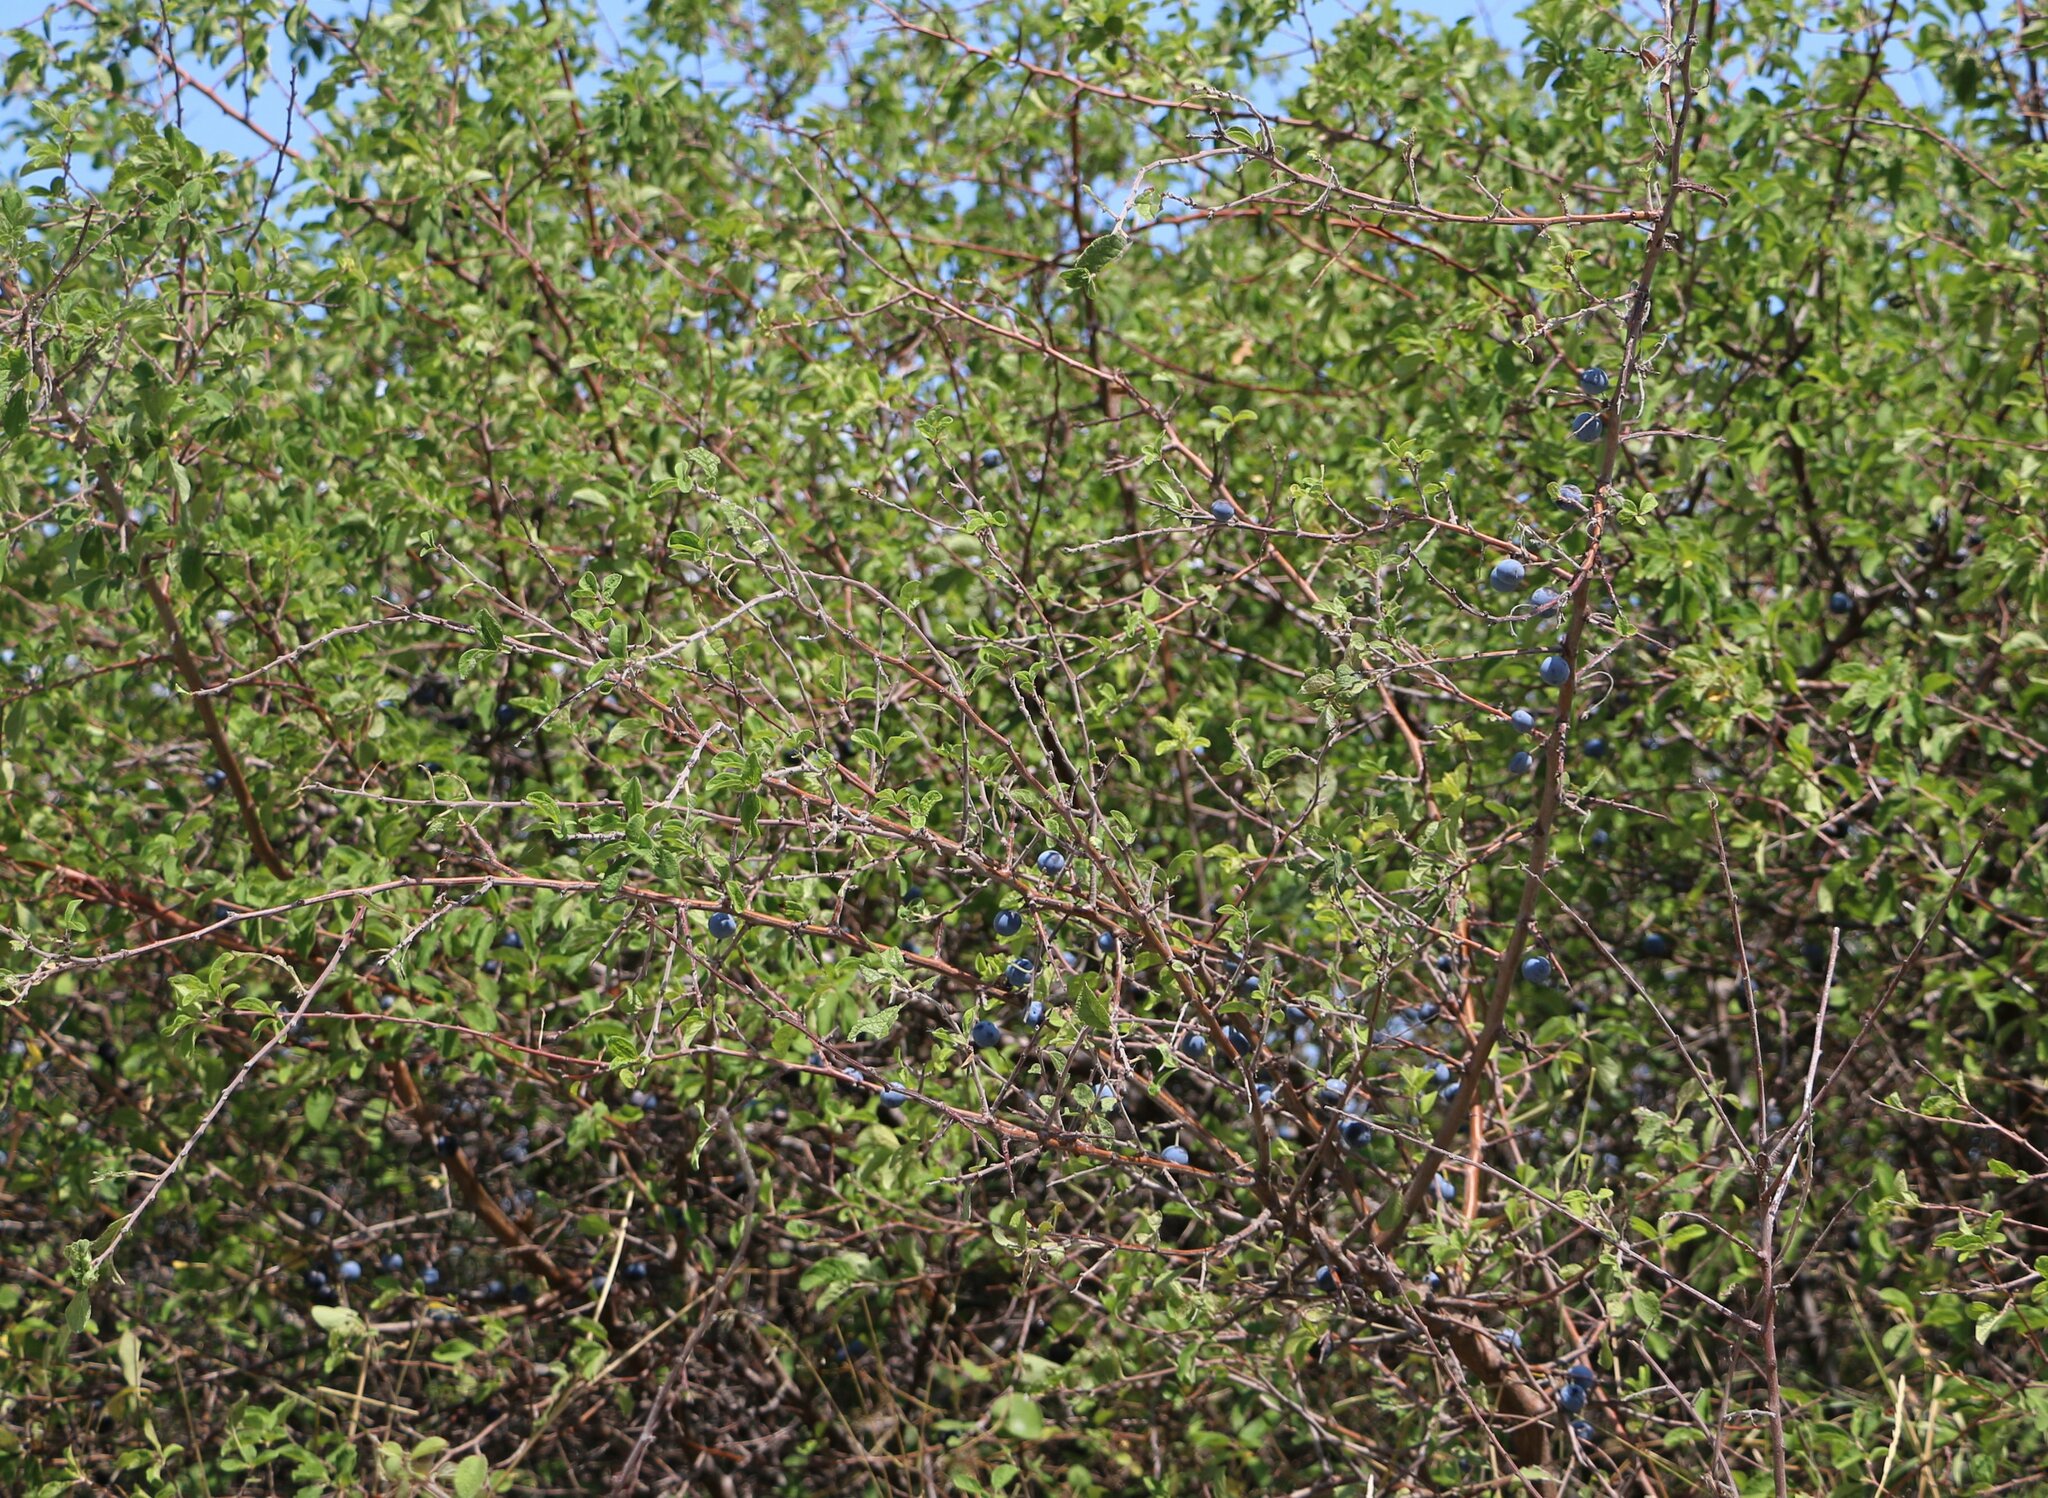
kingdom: Plantae
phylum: Tracheophyta
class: Magnoliopsida
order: Rosales
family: Rosaceae
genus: Prunus
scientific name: Prunus spinosa
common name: Blackthorn
